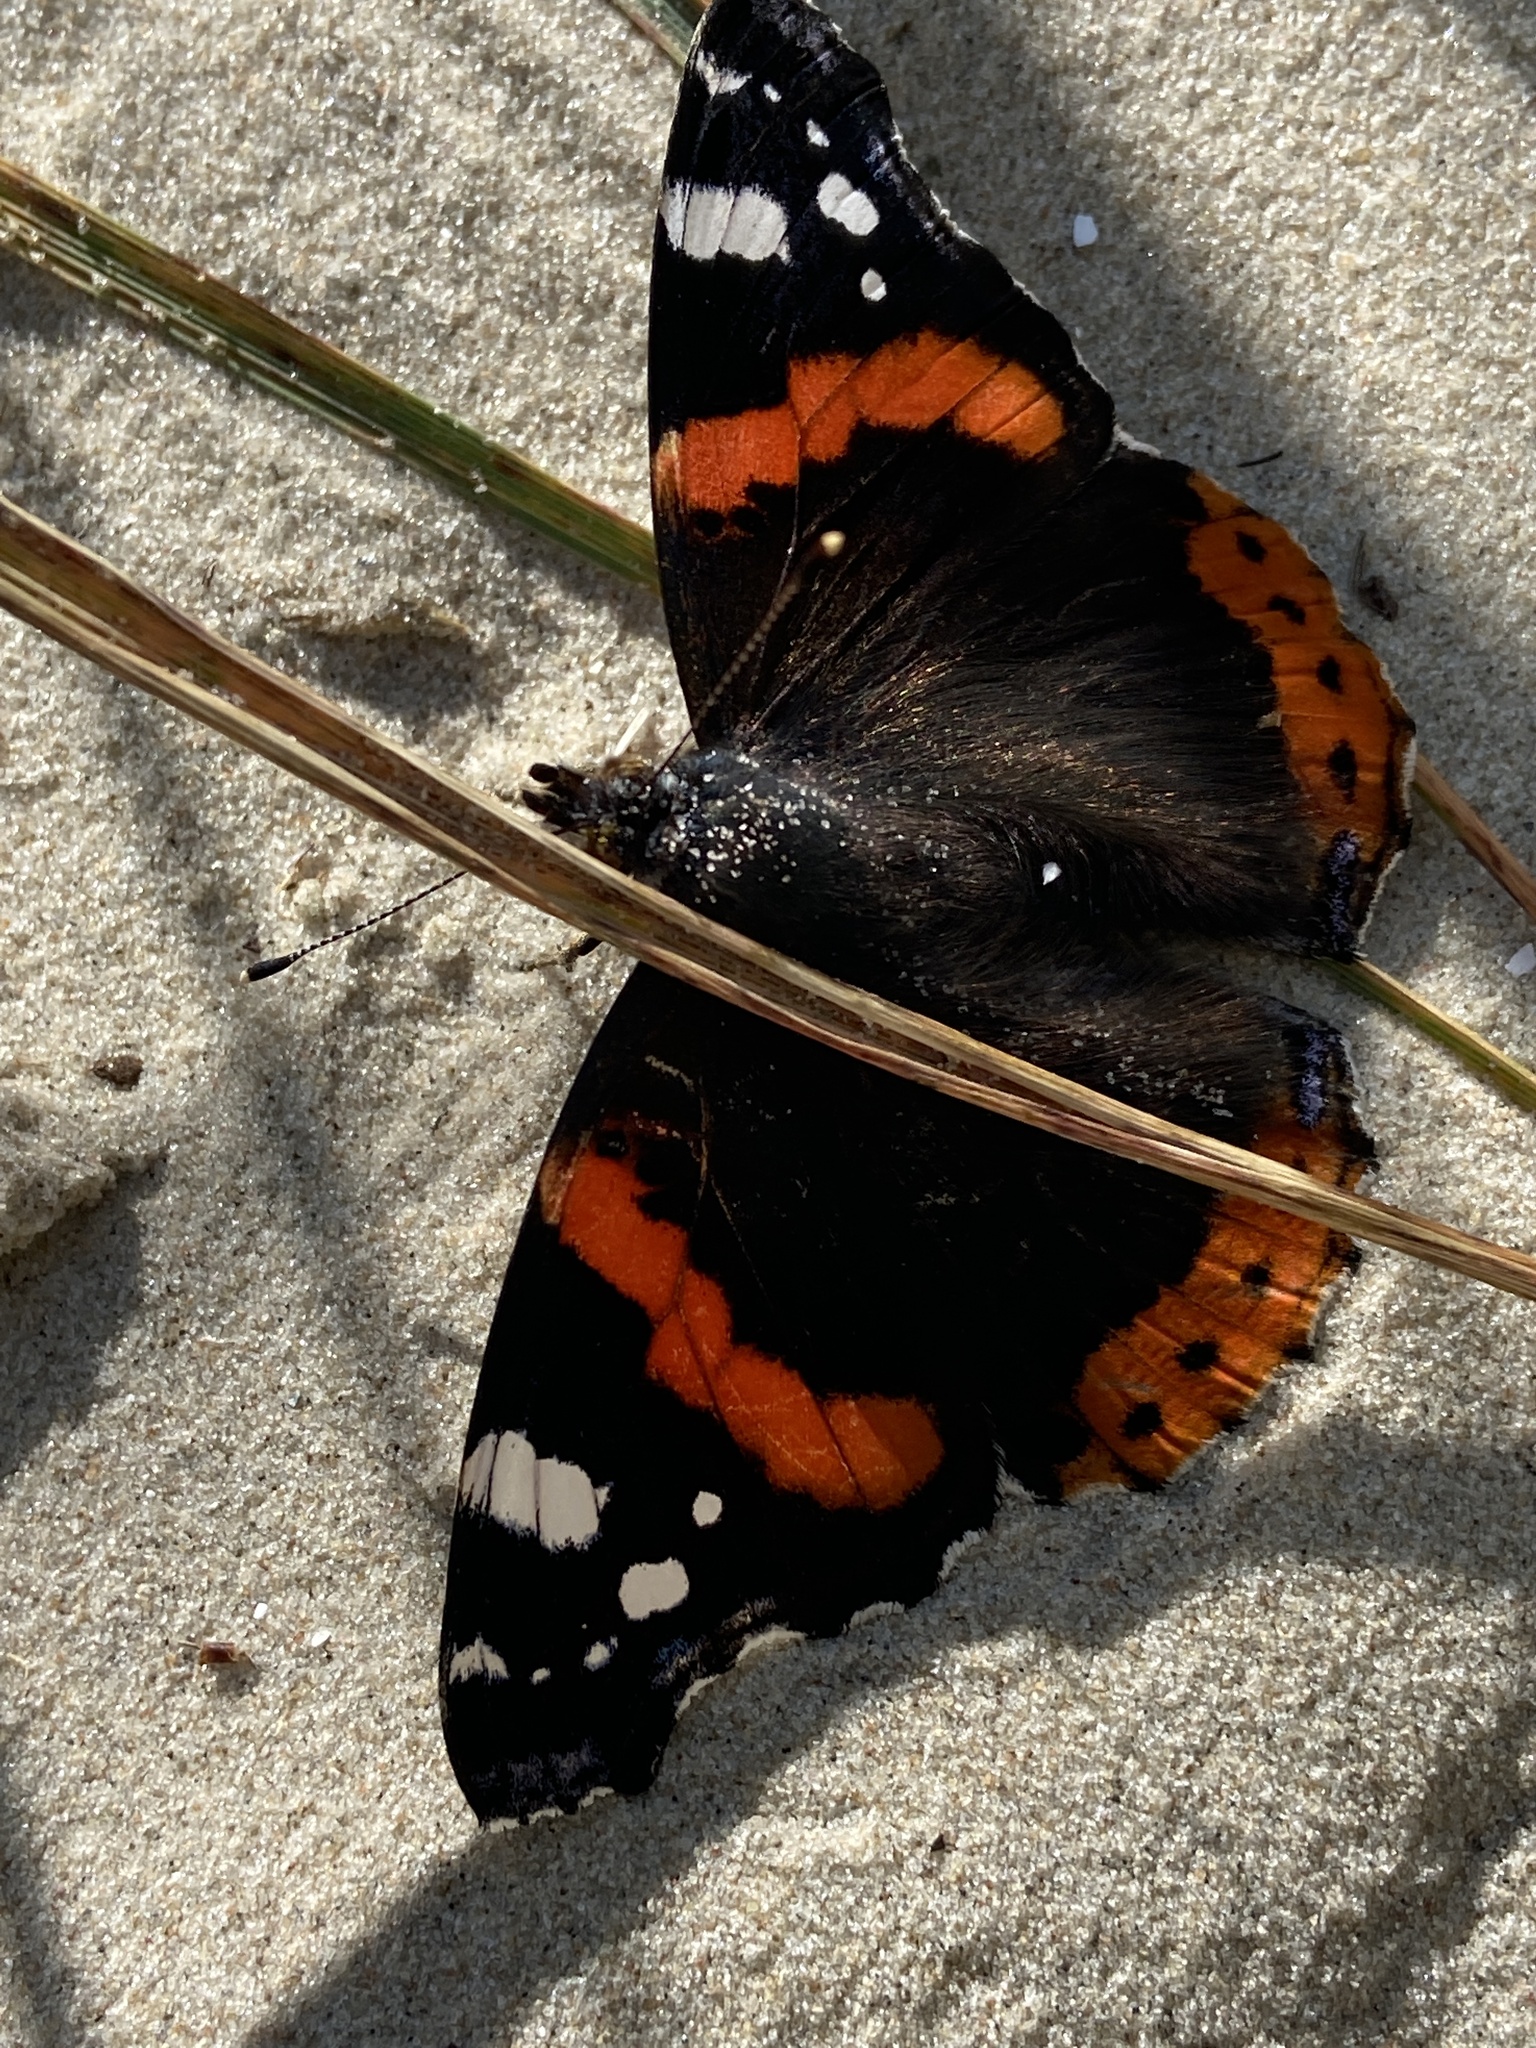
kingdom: Animalia
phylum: Arthropoda
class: Insecta
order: Lepidoptera
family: Nymphalidae
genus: Vanessa
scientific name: Vanessa atalanta
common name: Red admiral
